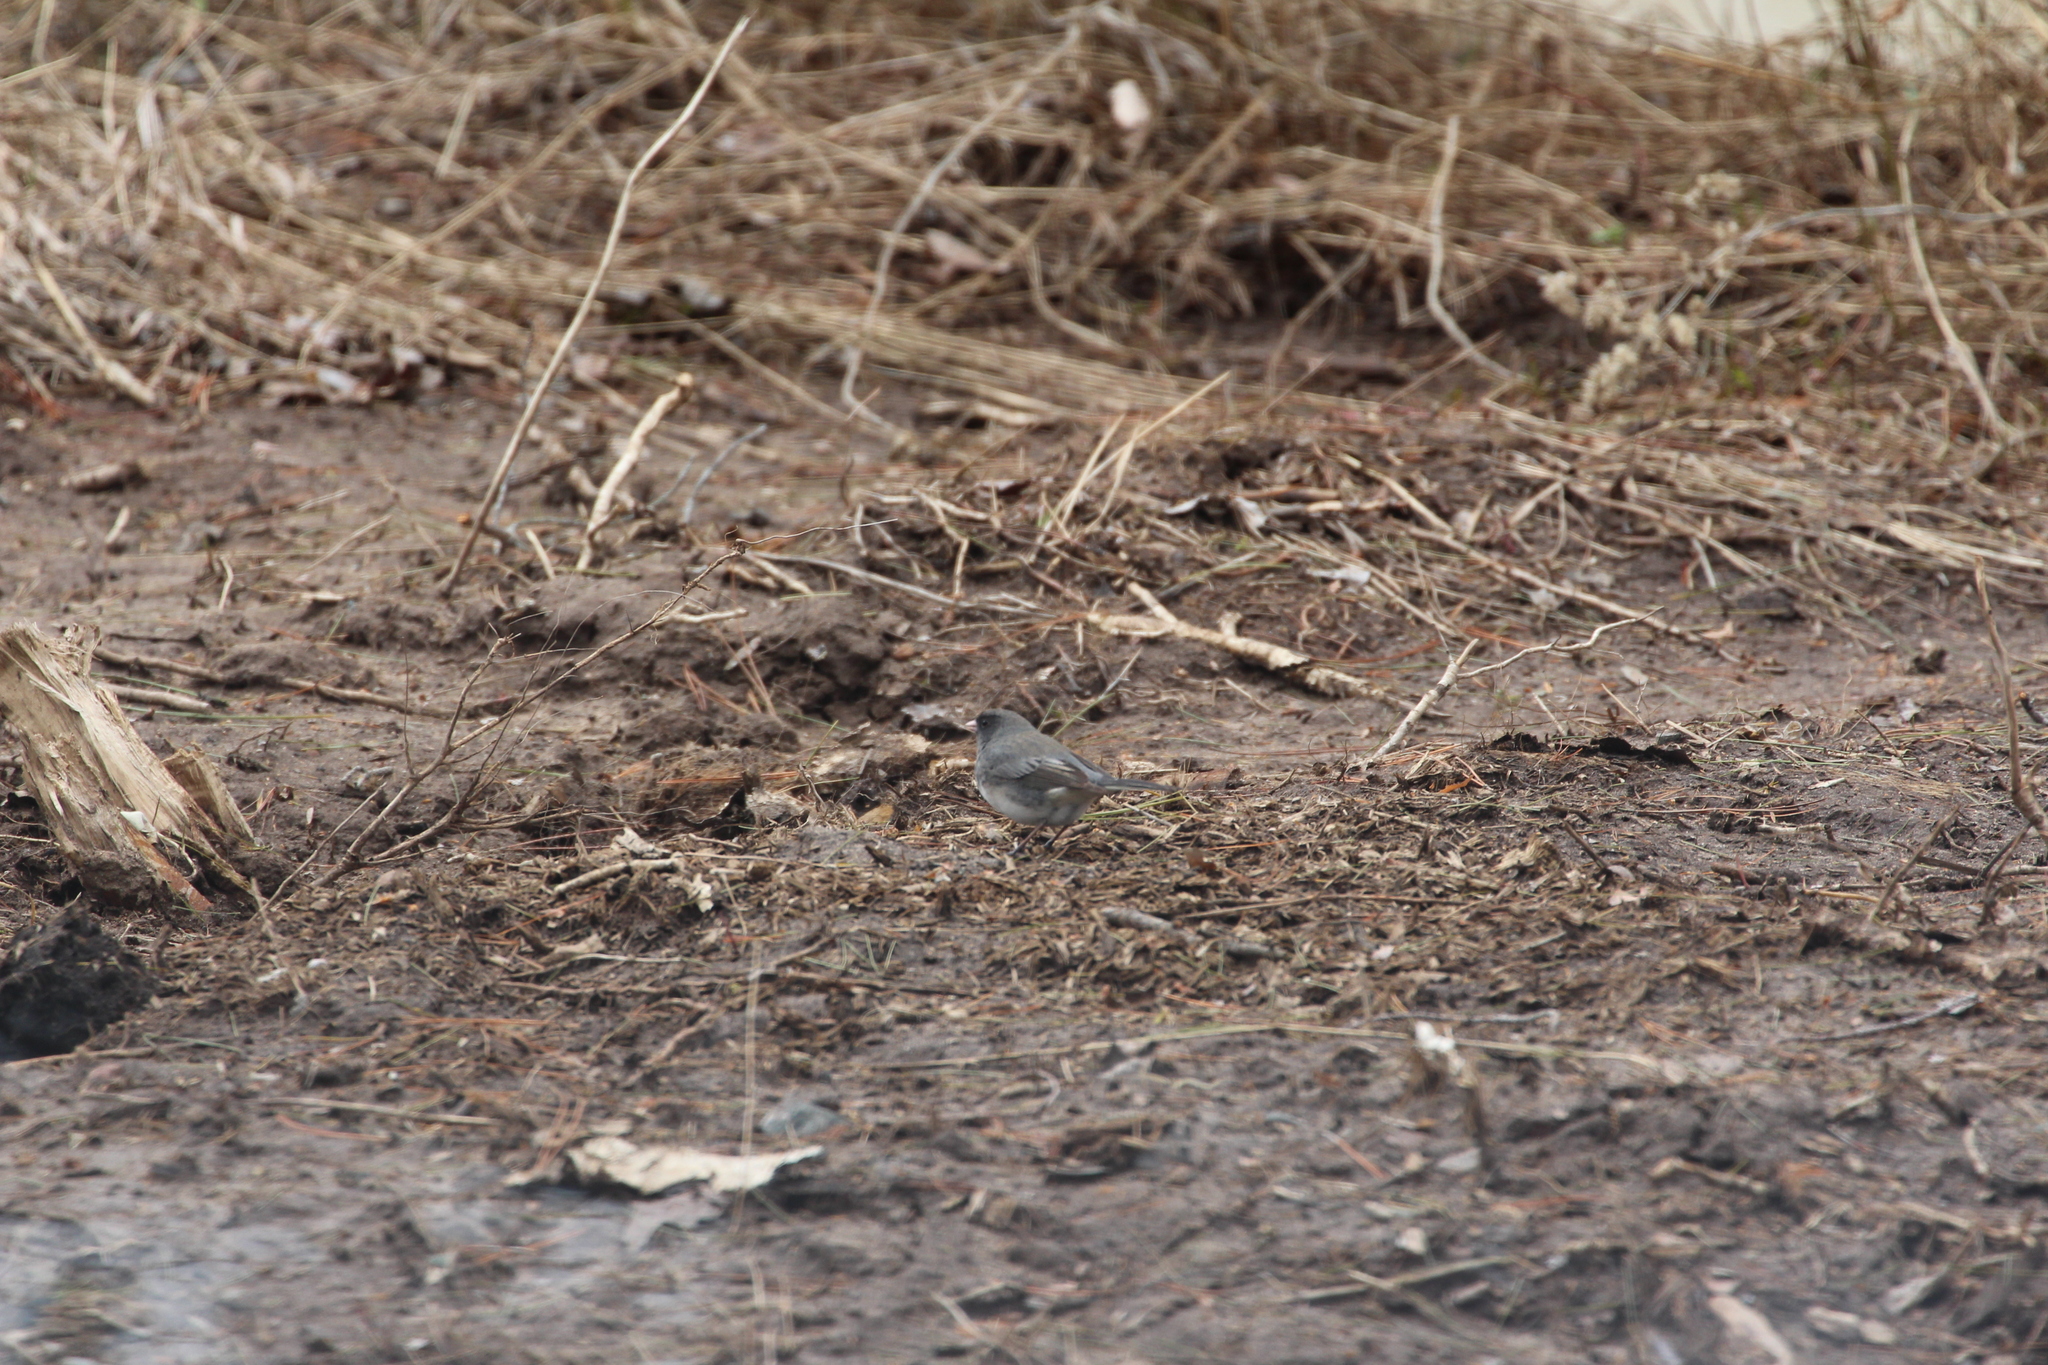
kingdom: Animalia
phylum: Chordata
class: Aves
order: Passeriformes
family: Passerellidae
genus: Junco
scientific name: Junco hyemalis
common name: Dark-eyed junco
